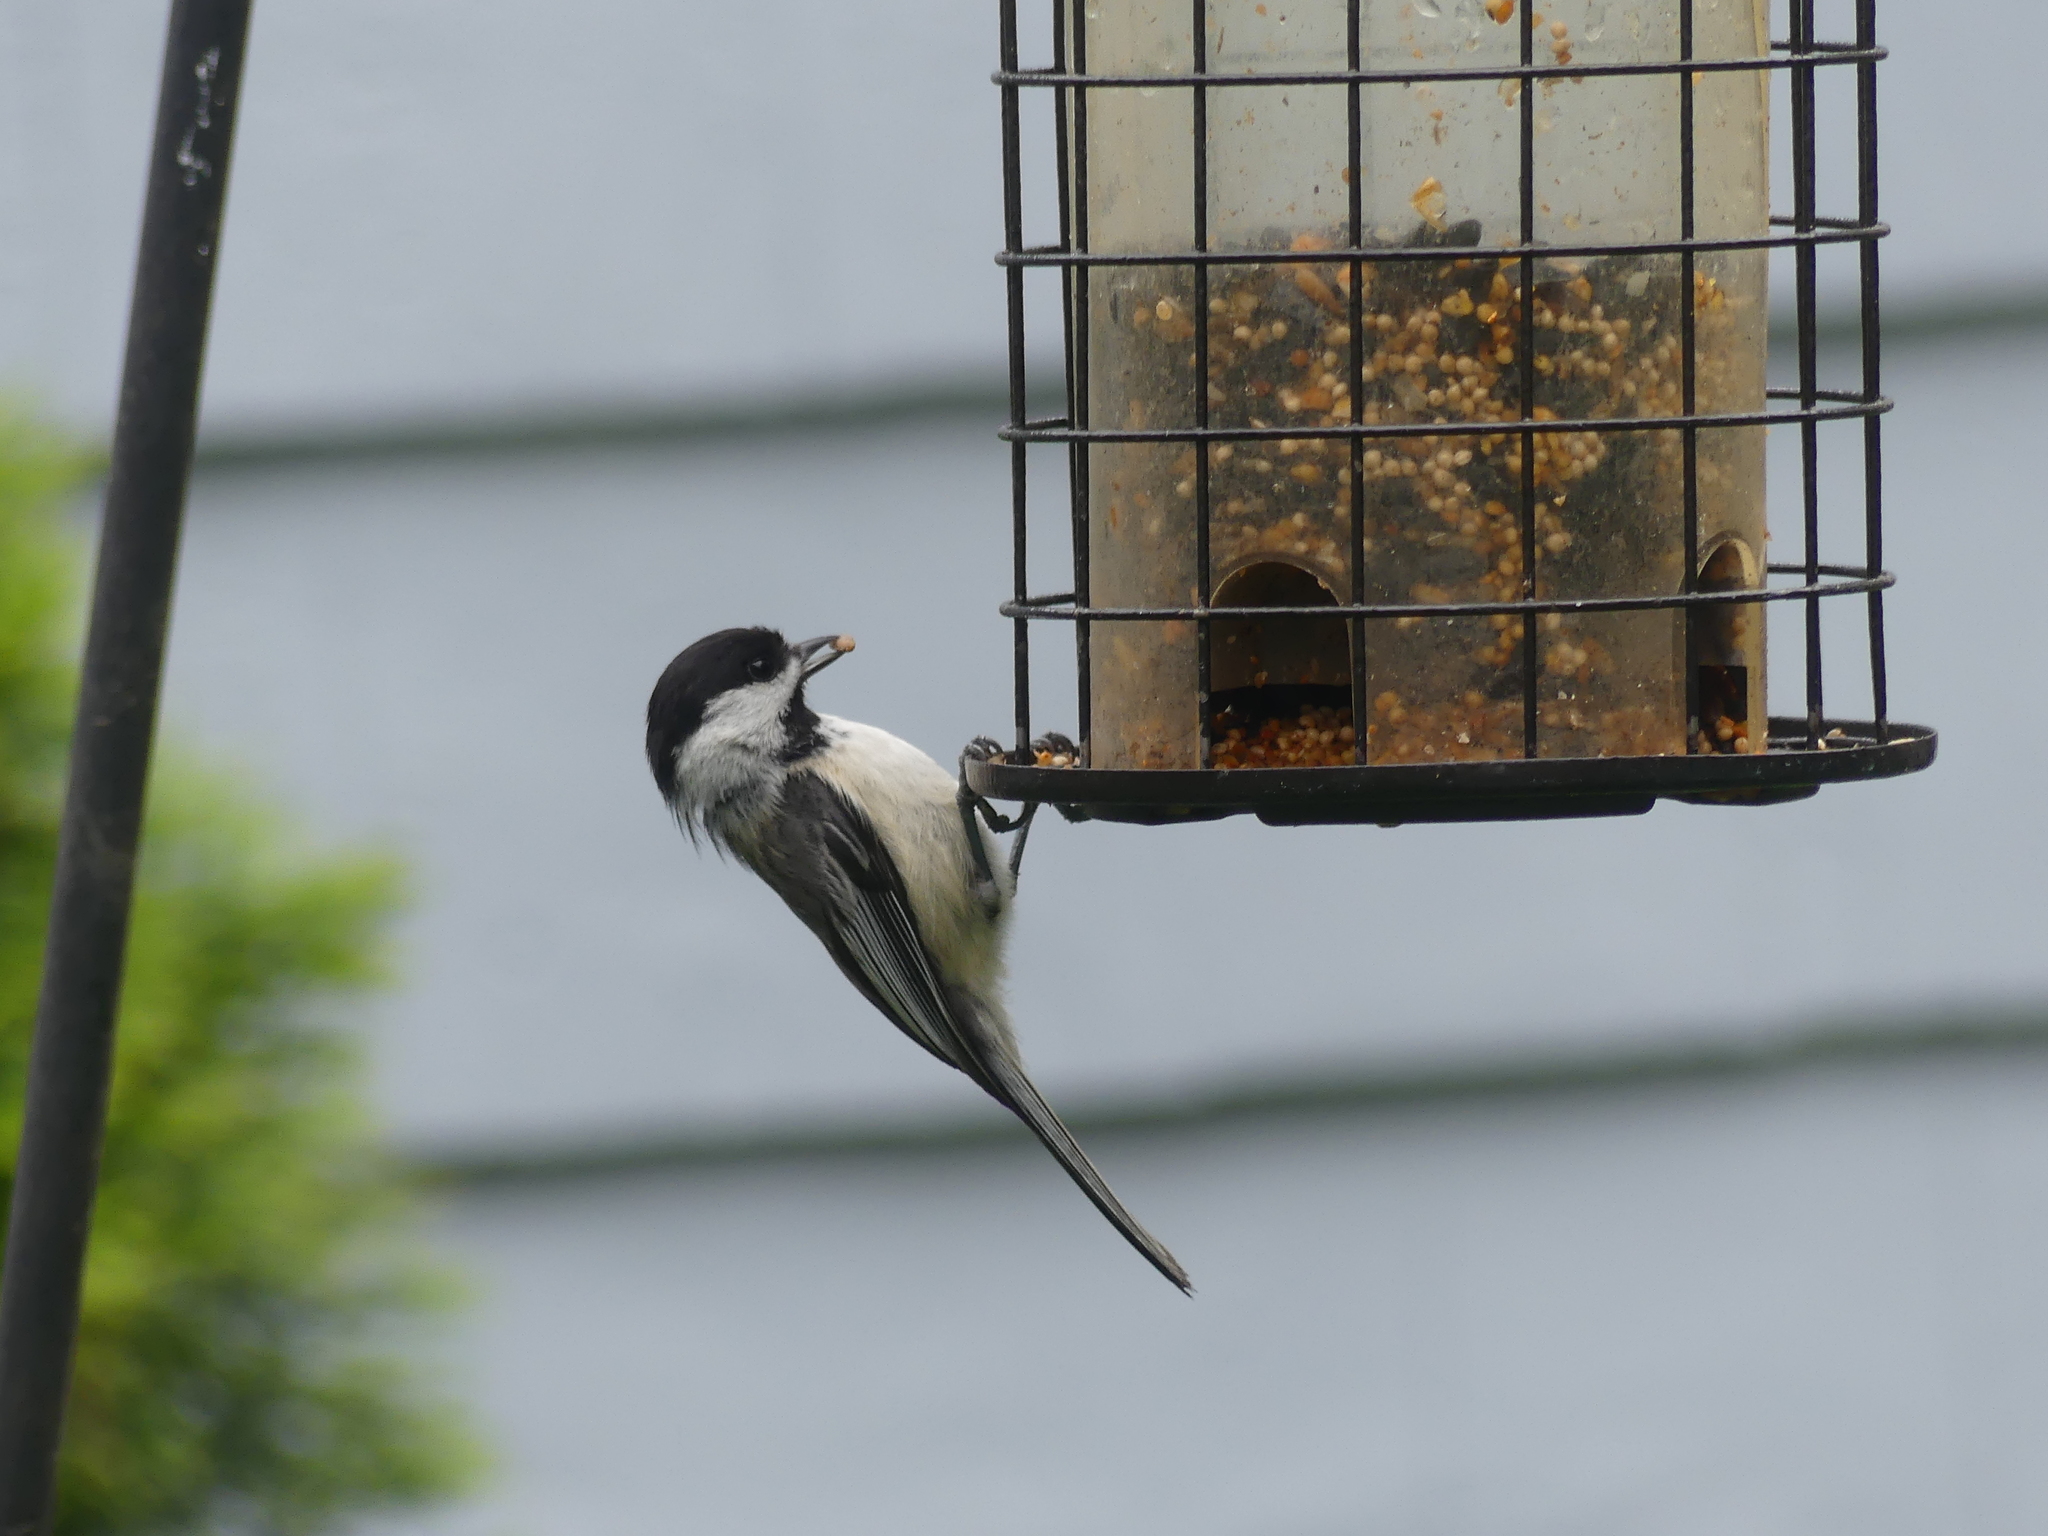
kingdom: Animalia
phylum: Chordata
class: Aves
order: Passeriformes
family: Paridae
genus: Poecile
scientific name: Poecile atricapillus
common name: Black-capped chickadee
